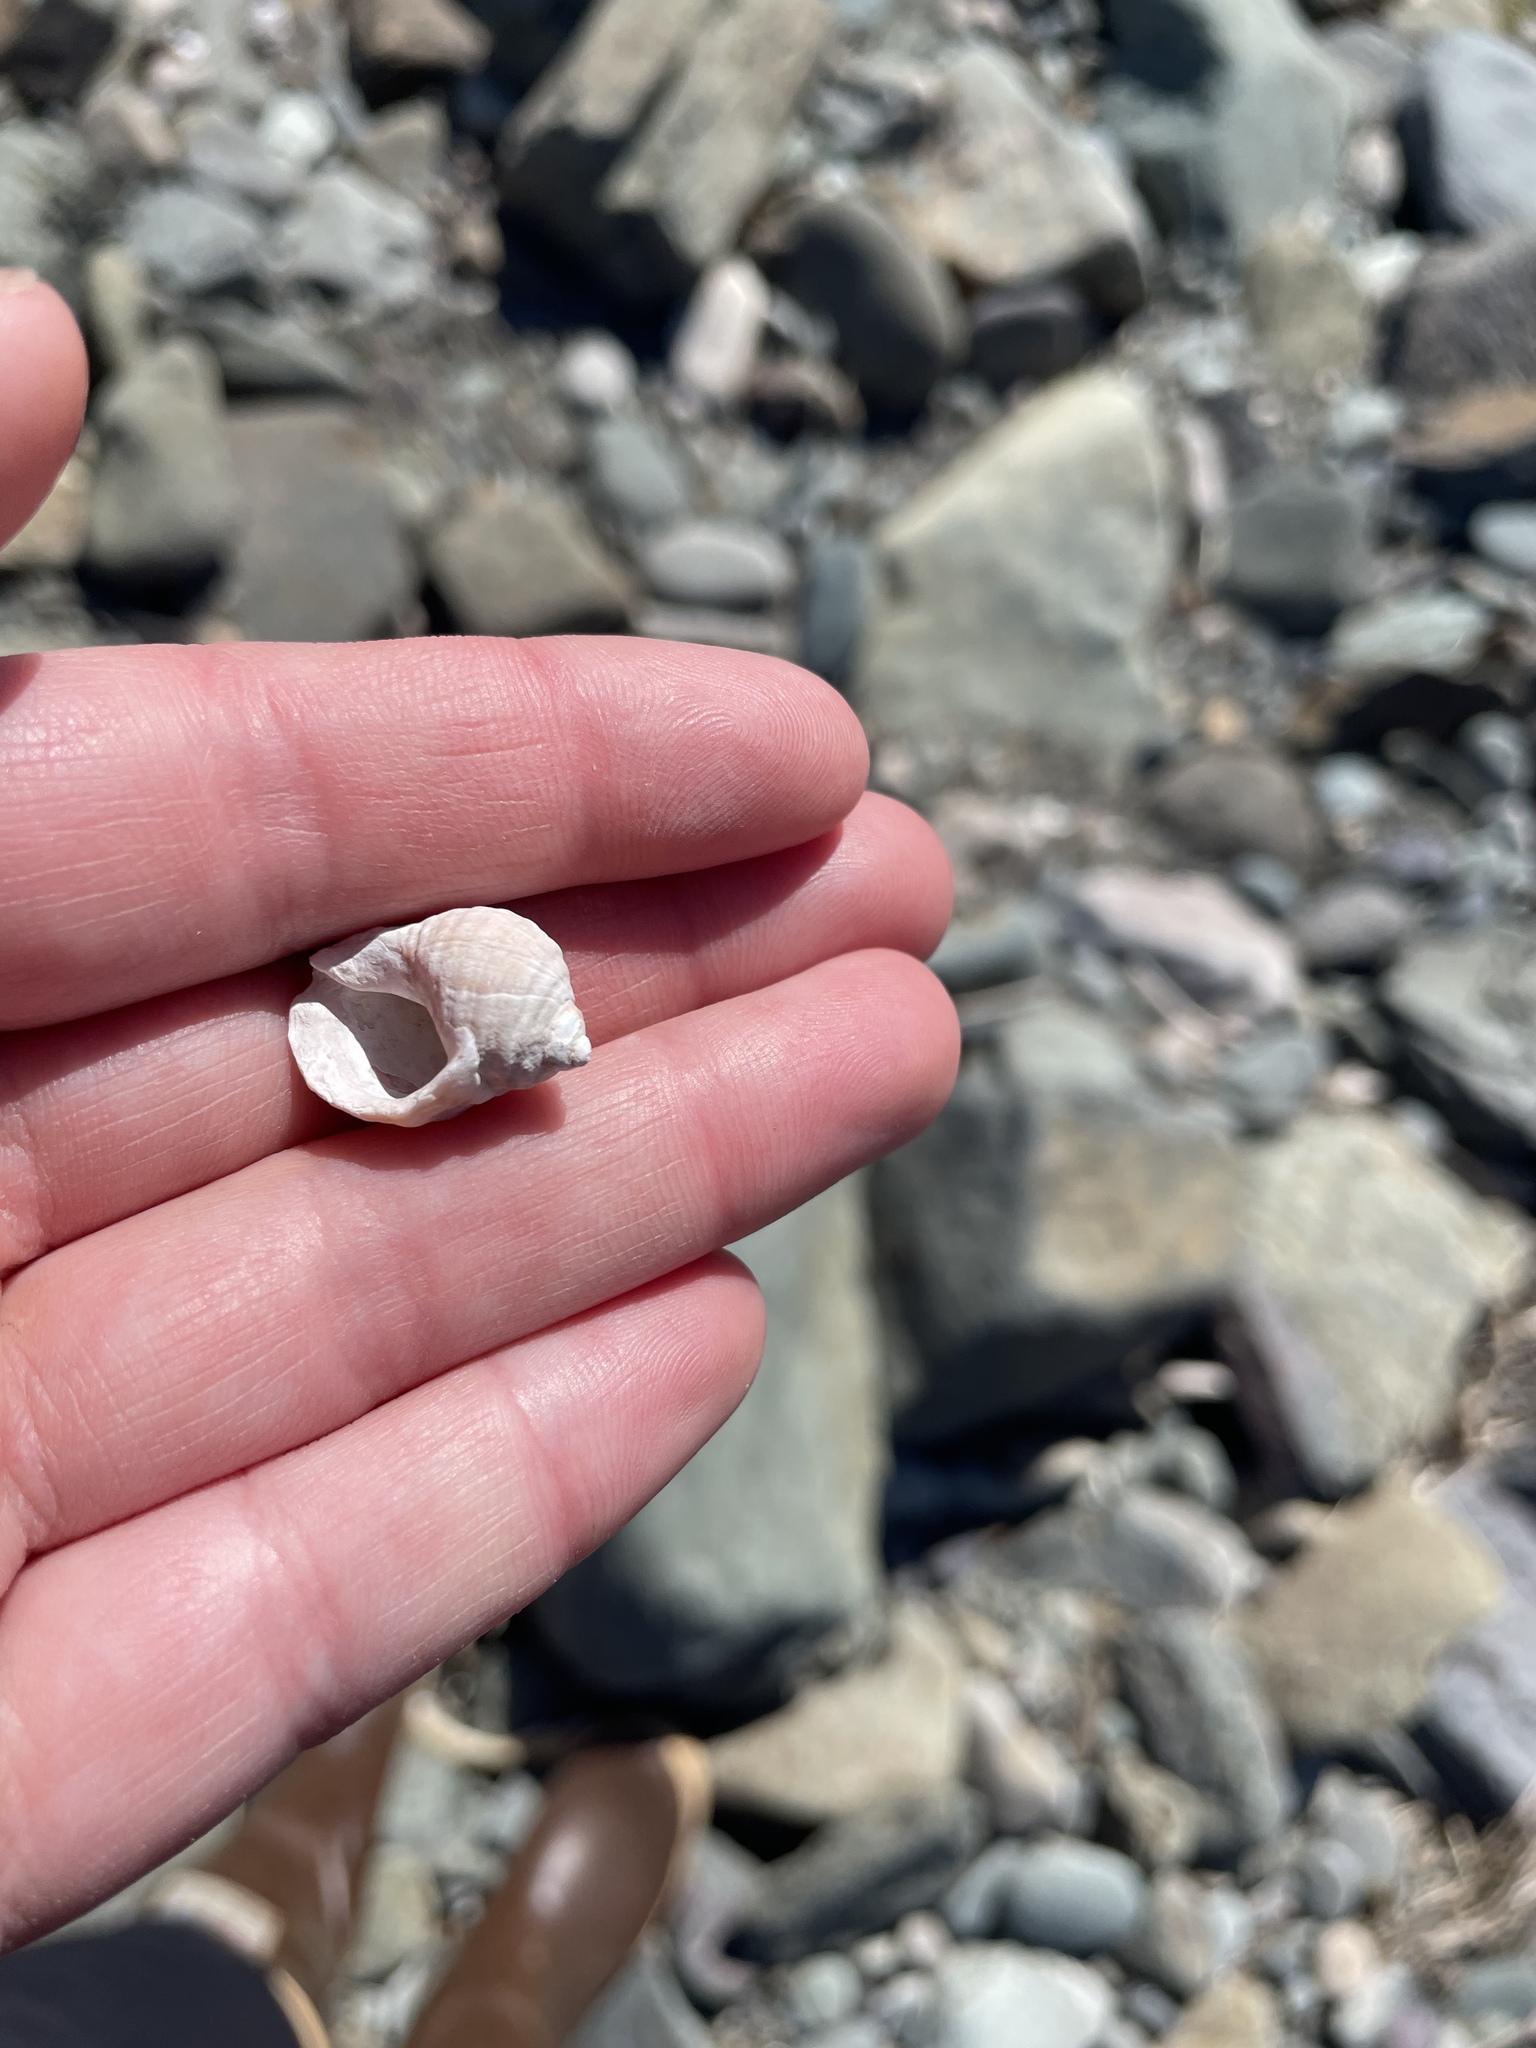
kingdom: Animalia
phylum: Mollusca
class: Gastropoda
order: Littorinimorpha
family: Littorinidae
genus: Littorina
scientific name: Littorina littorea
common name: Common periwinkle
